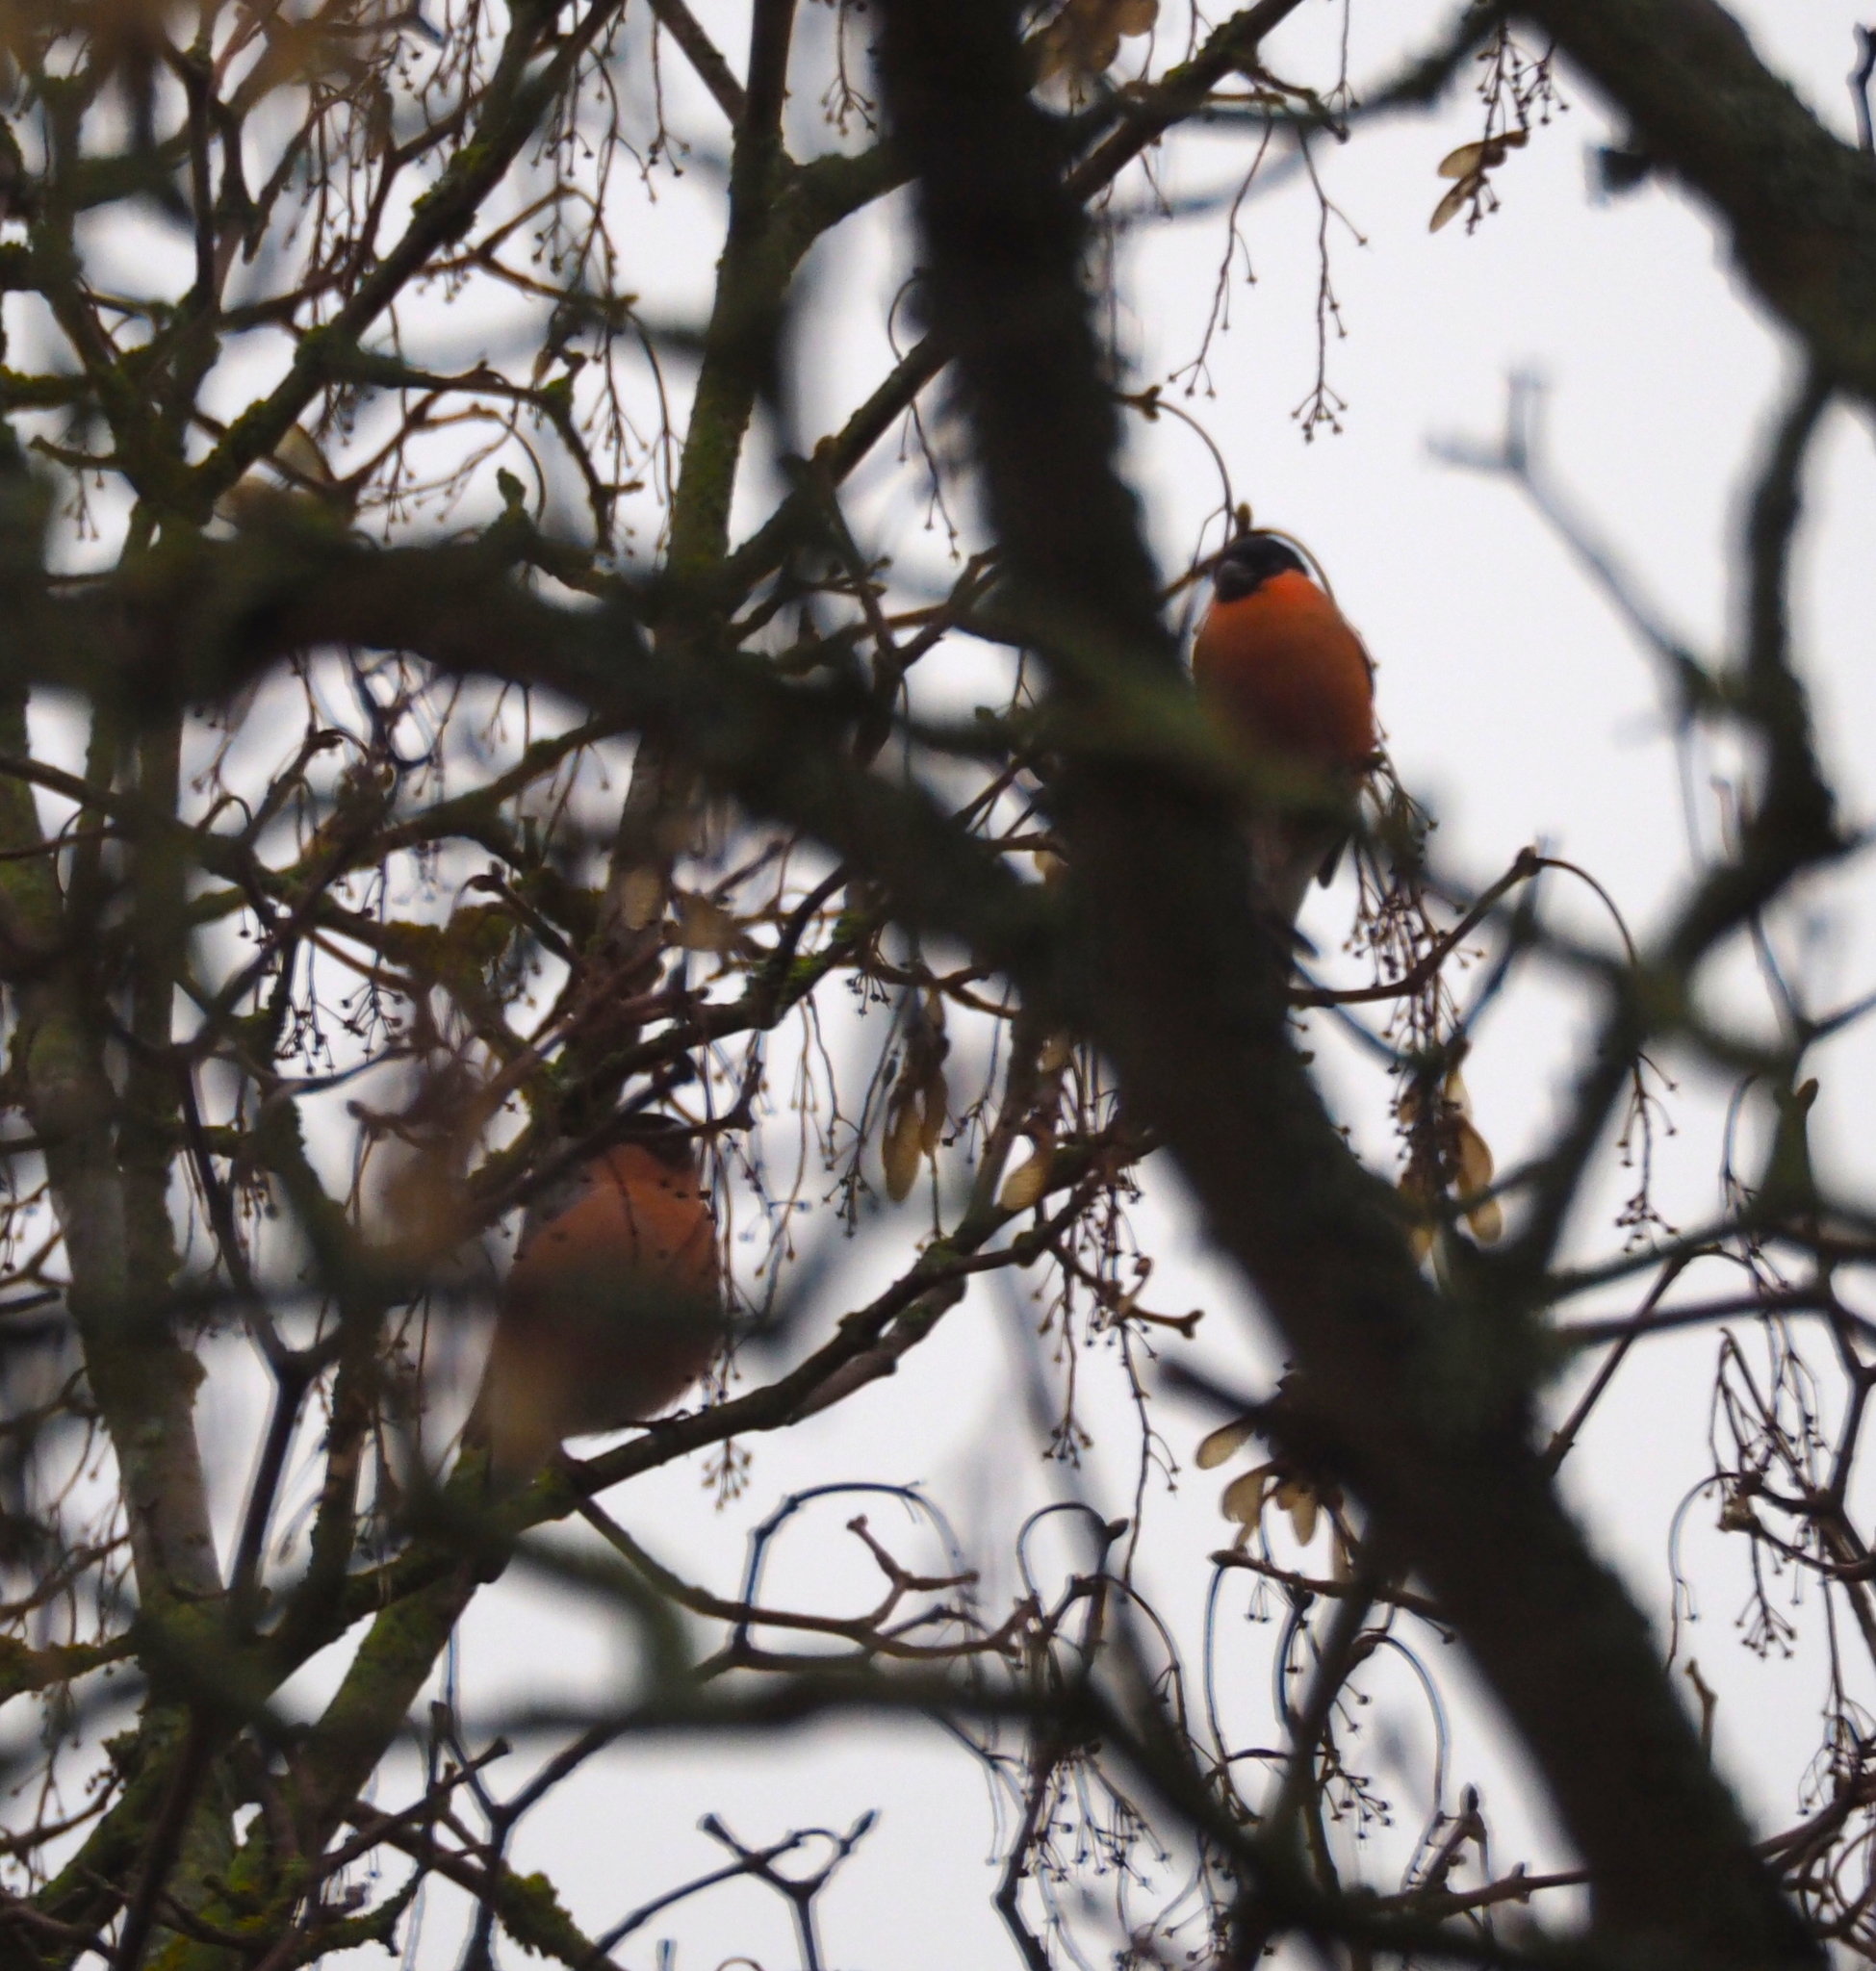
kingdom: Animalia
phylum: Chordata
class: Aves
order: Passeriformes
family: Fringillidae
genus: Pyrrhula
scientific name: Pyrrhula pyrrhula
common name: Eurasian bullfinch
